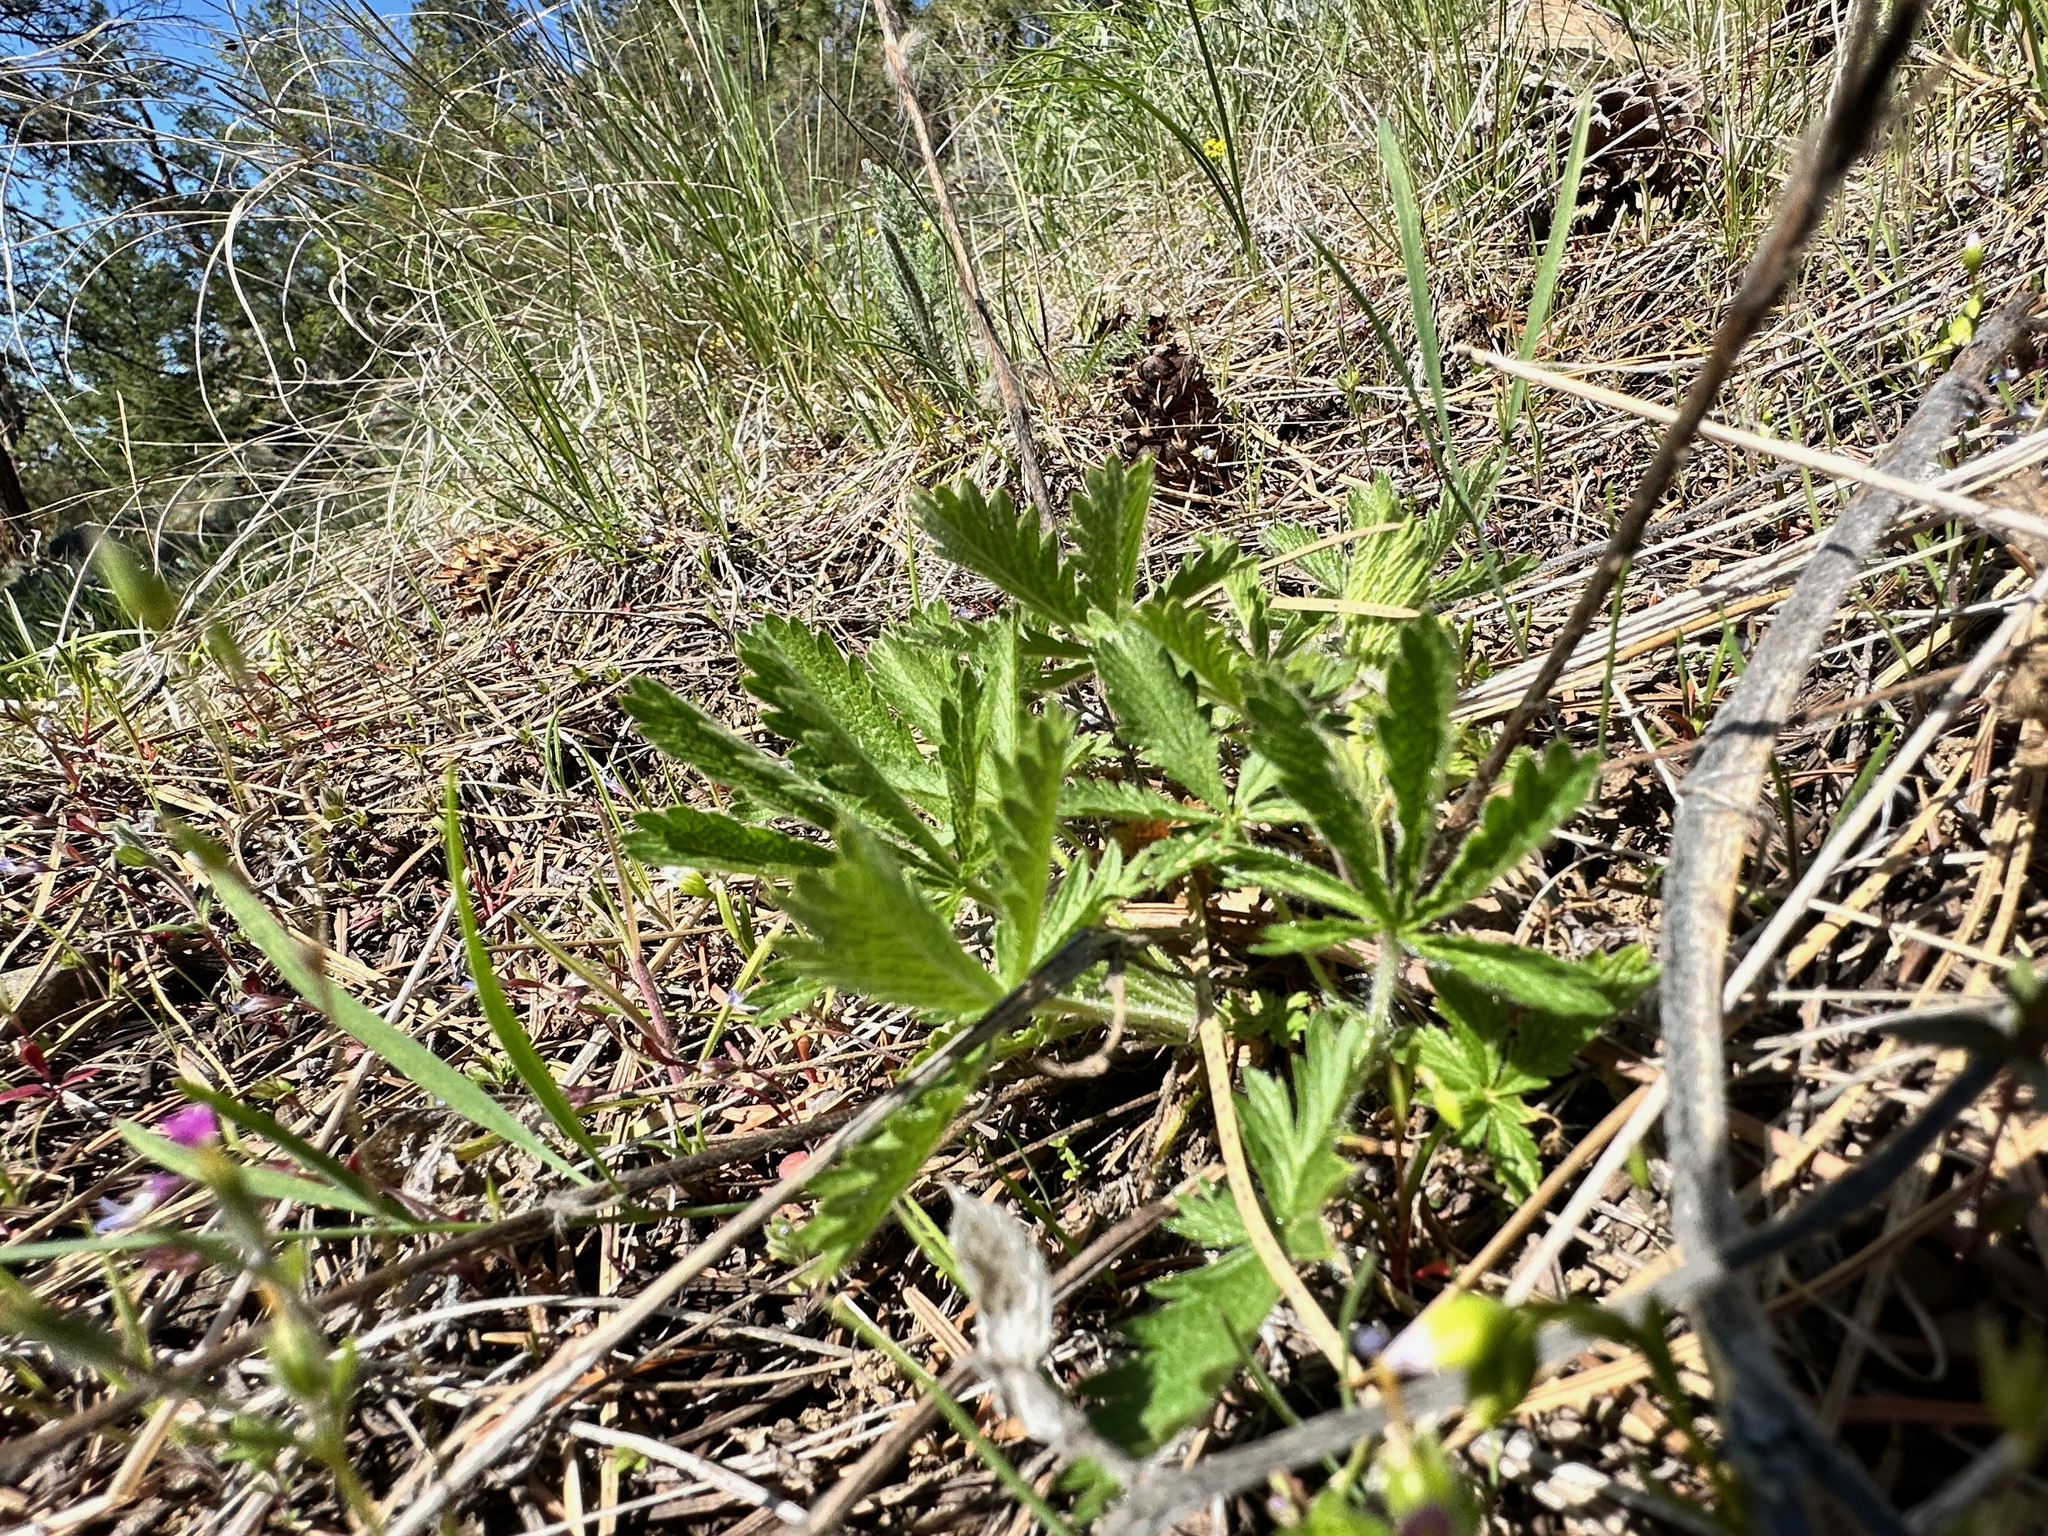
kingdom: Plantae
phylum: Tracheophyta
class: Magnoliopsida
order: Rosales
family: Rosaceae
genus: Potentilla
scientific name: Potentilla recta
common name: Sulphur cinquefoil
